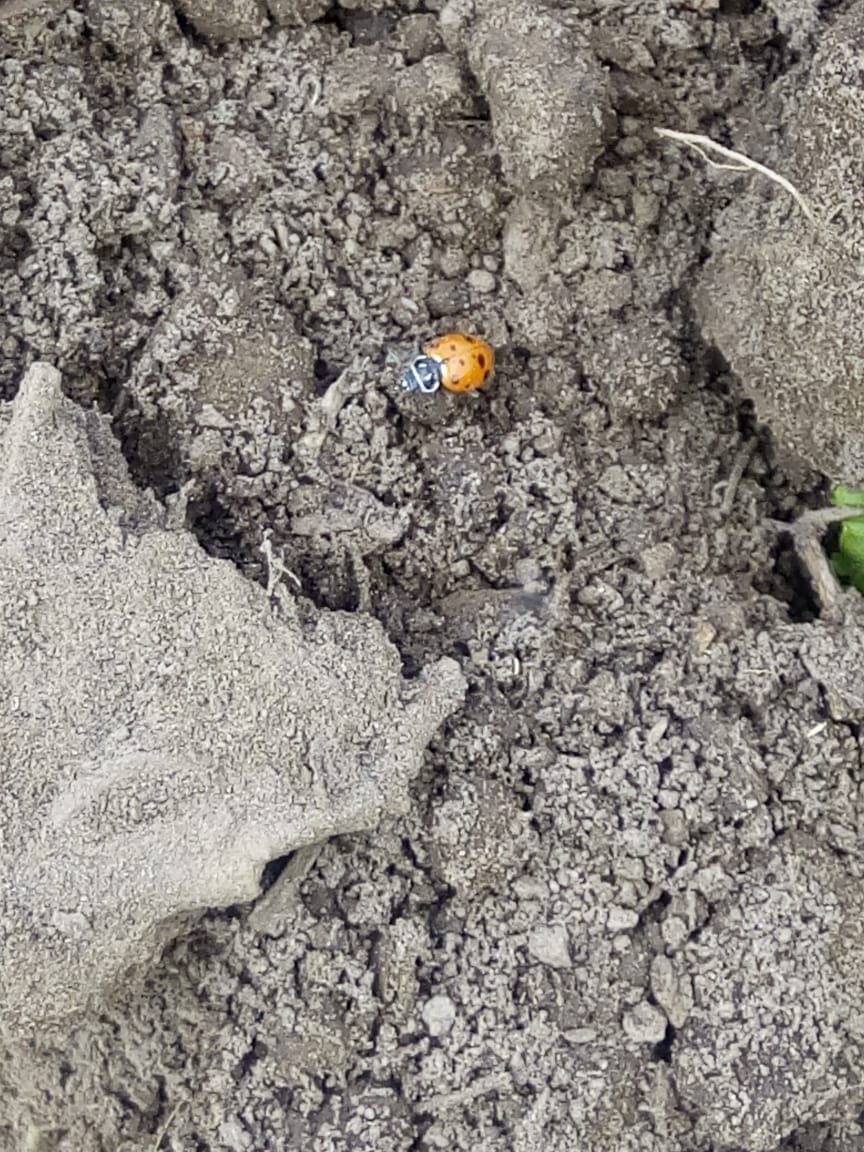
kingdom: Animalia
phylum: Arthropoda
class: Insecta
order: Coleoptera
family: Coccinellidae
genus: Hippodamia
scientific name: Hippodamia convergens
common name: Convergent lady beetle
